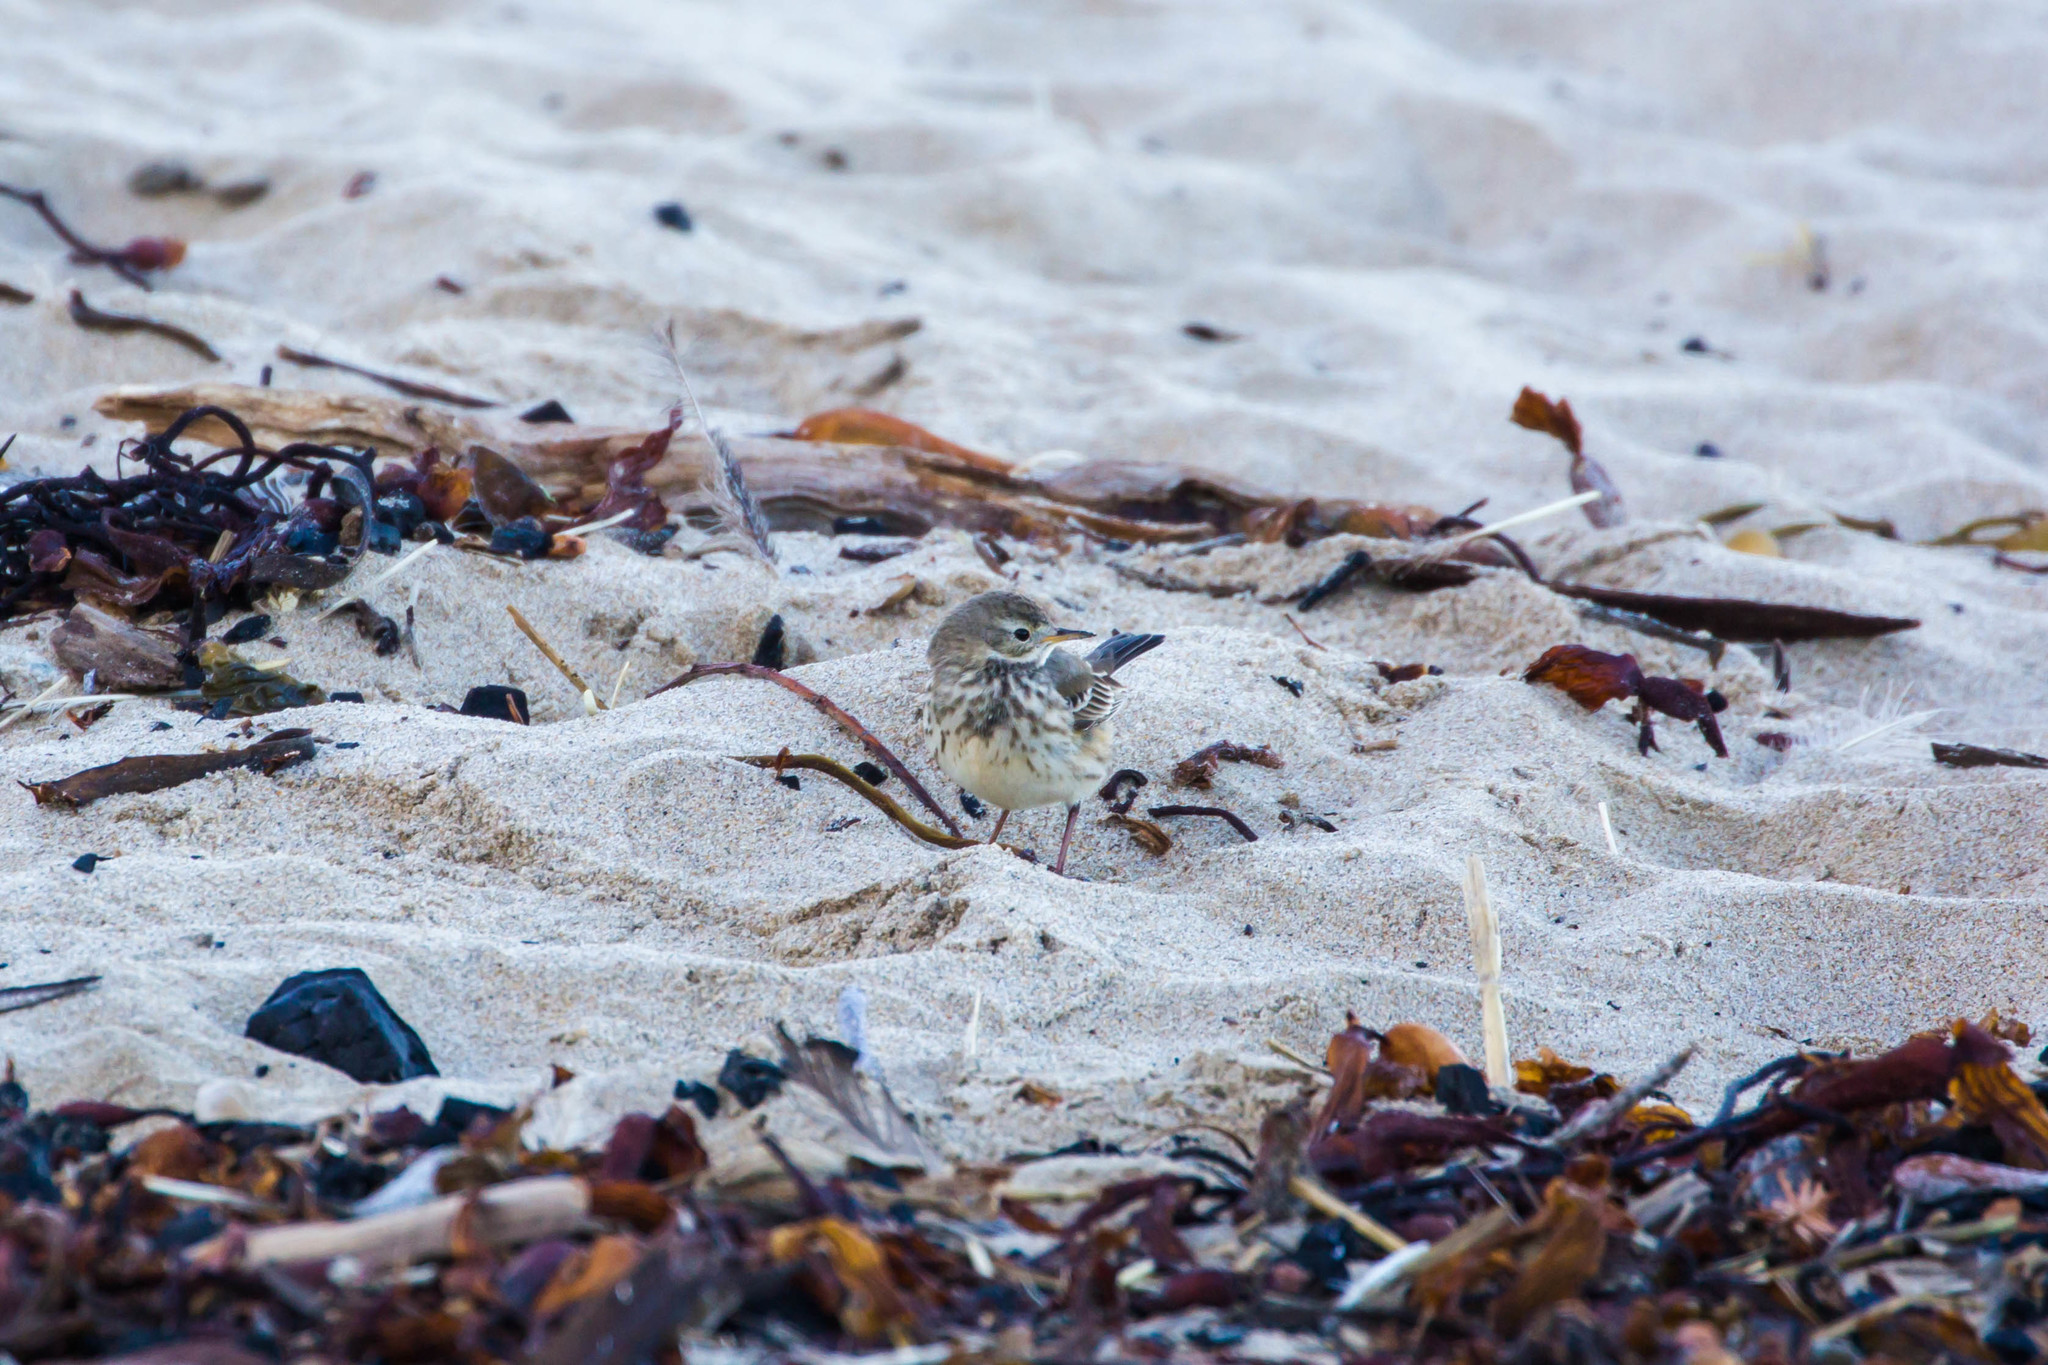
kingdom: Animalia
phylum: Chordata
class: Aves
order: Passeriformes
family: Motacillidae
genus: Anthus
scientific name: Anthus rubescens
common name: Buff-bellied pipit
